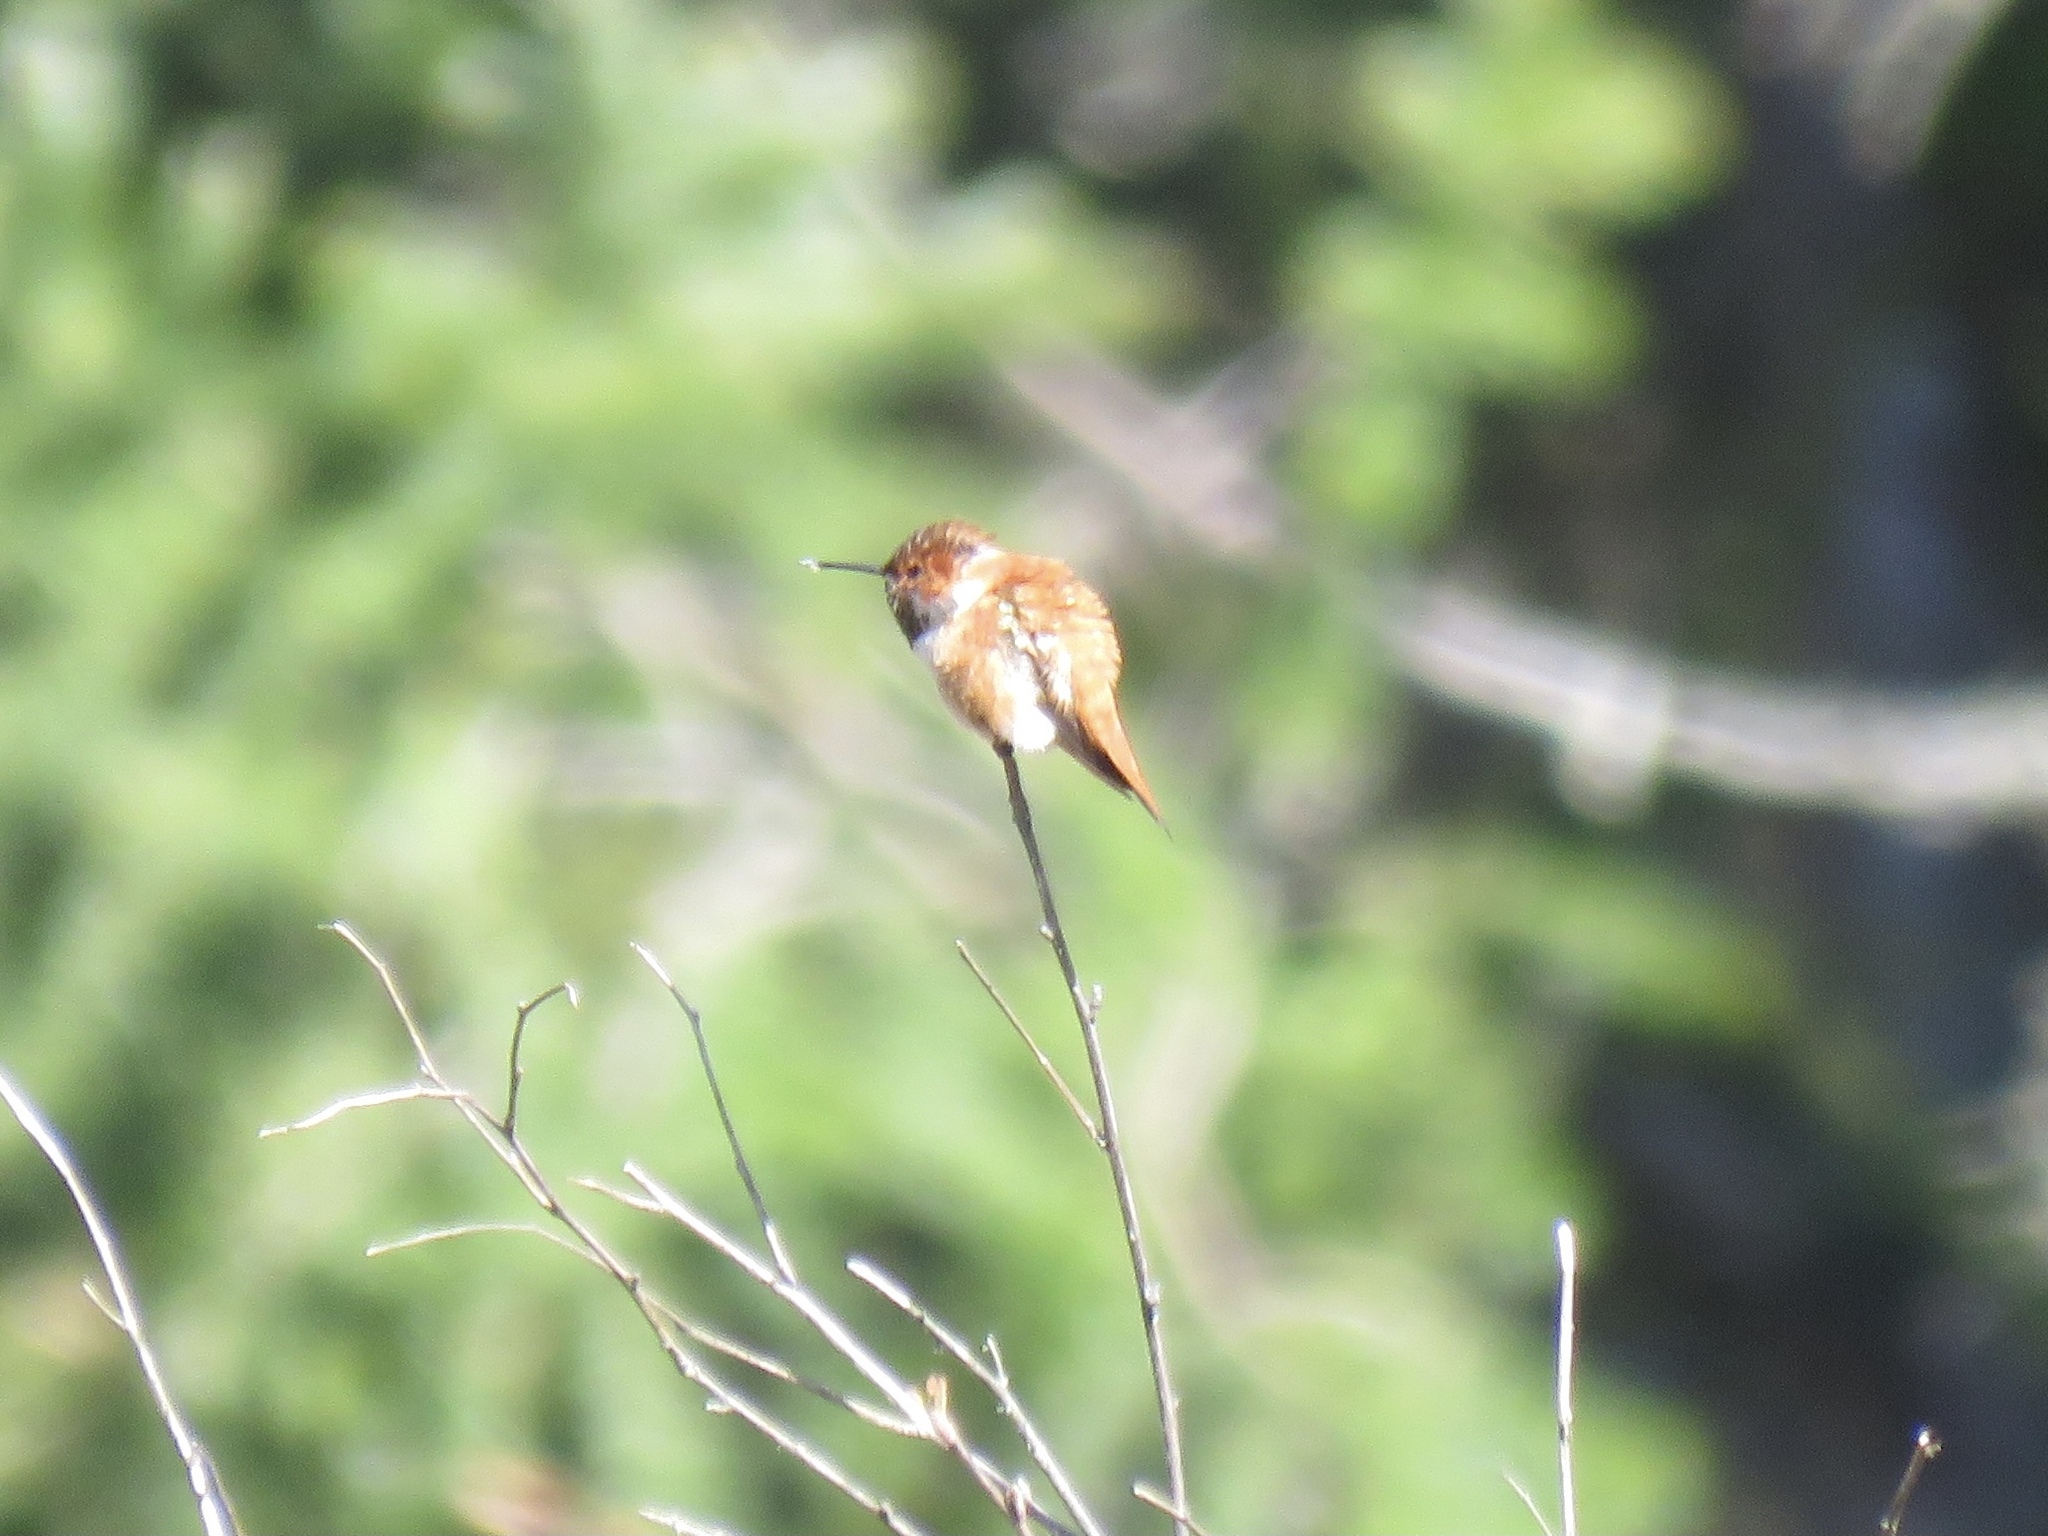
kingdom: Animalia
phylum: Chordata
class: Aves
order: Apodiformes
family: Trochilidae
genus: Selasphorus
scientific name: Selasphorus rufus
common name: Rufous hummingbird
